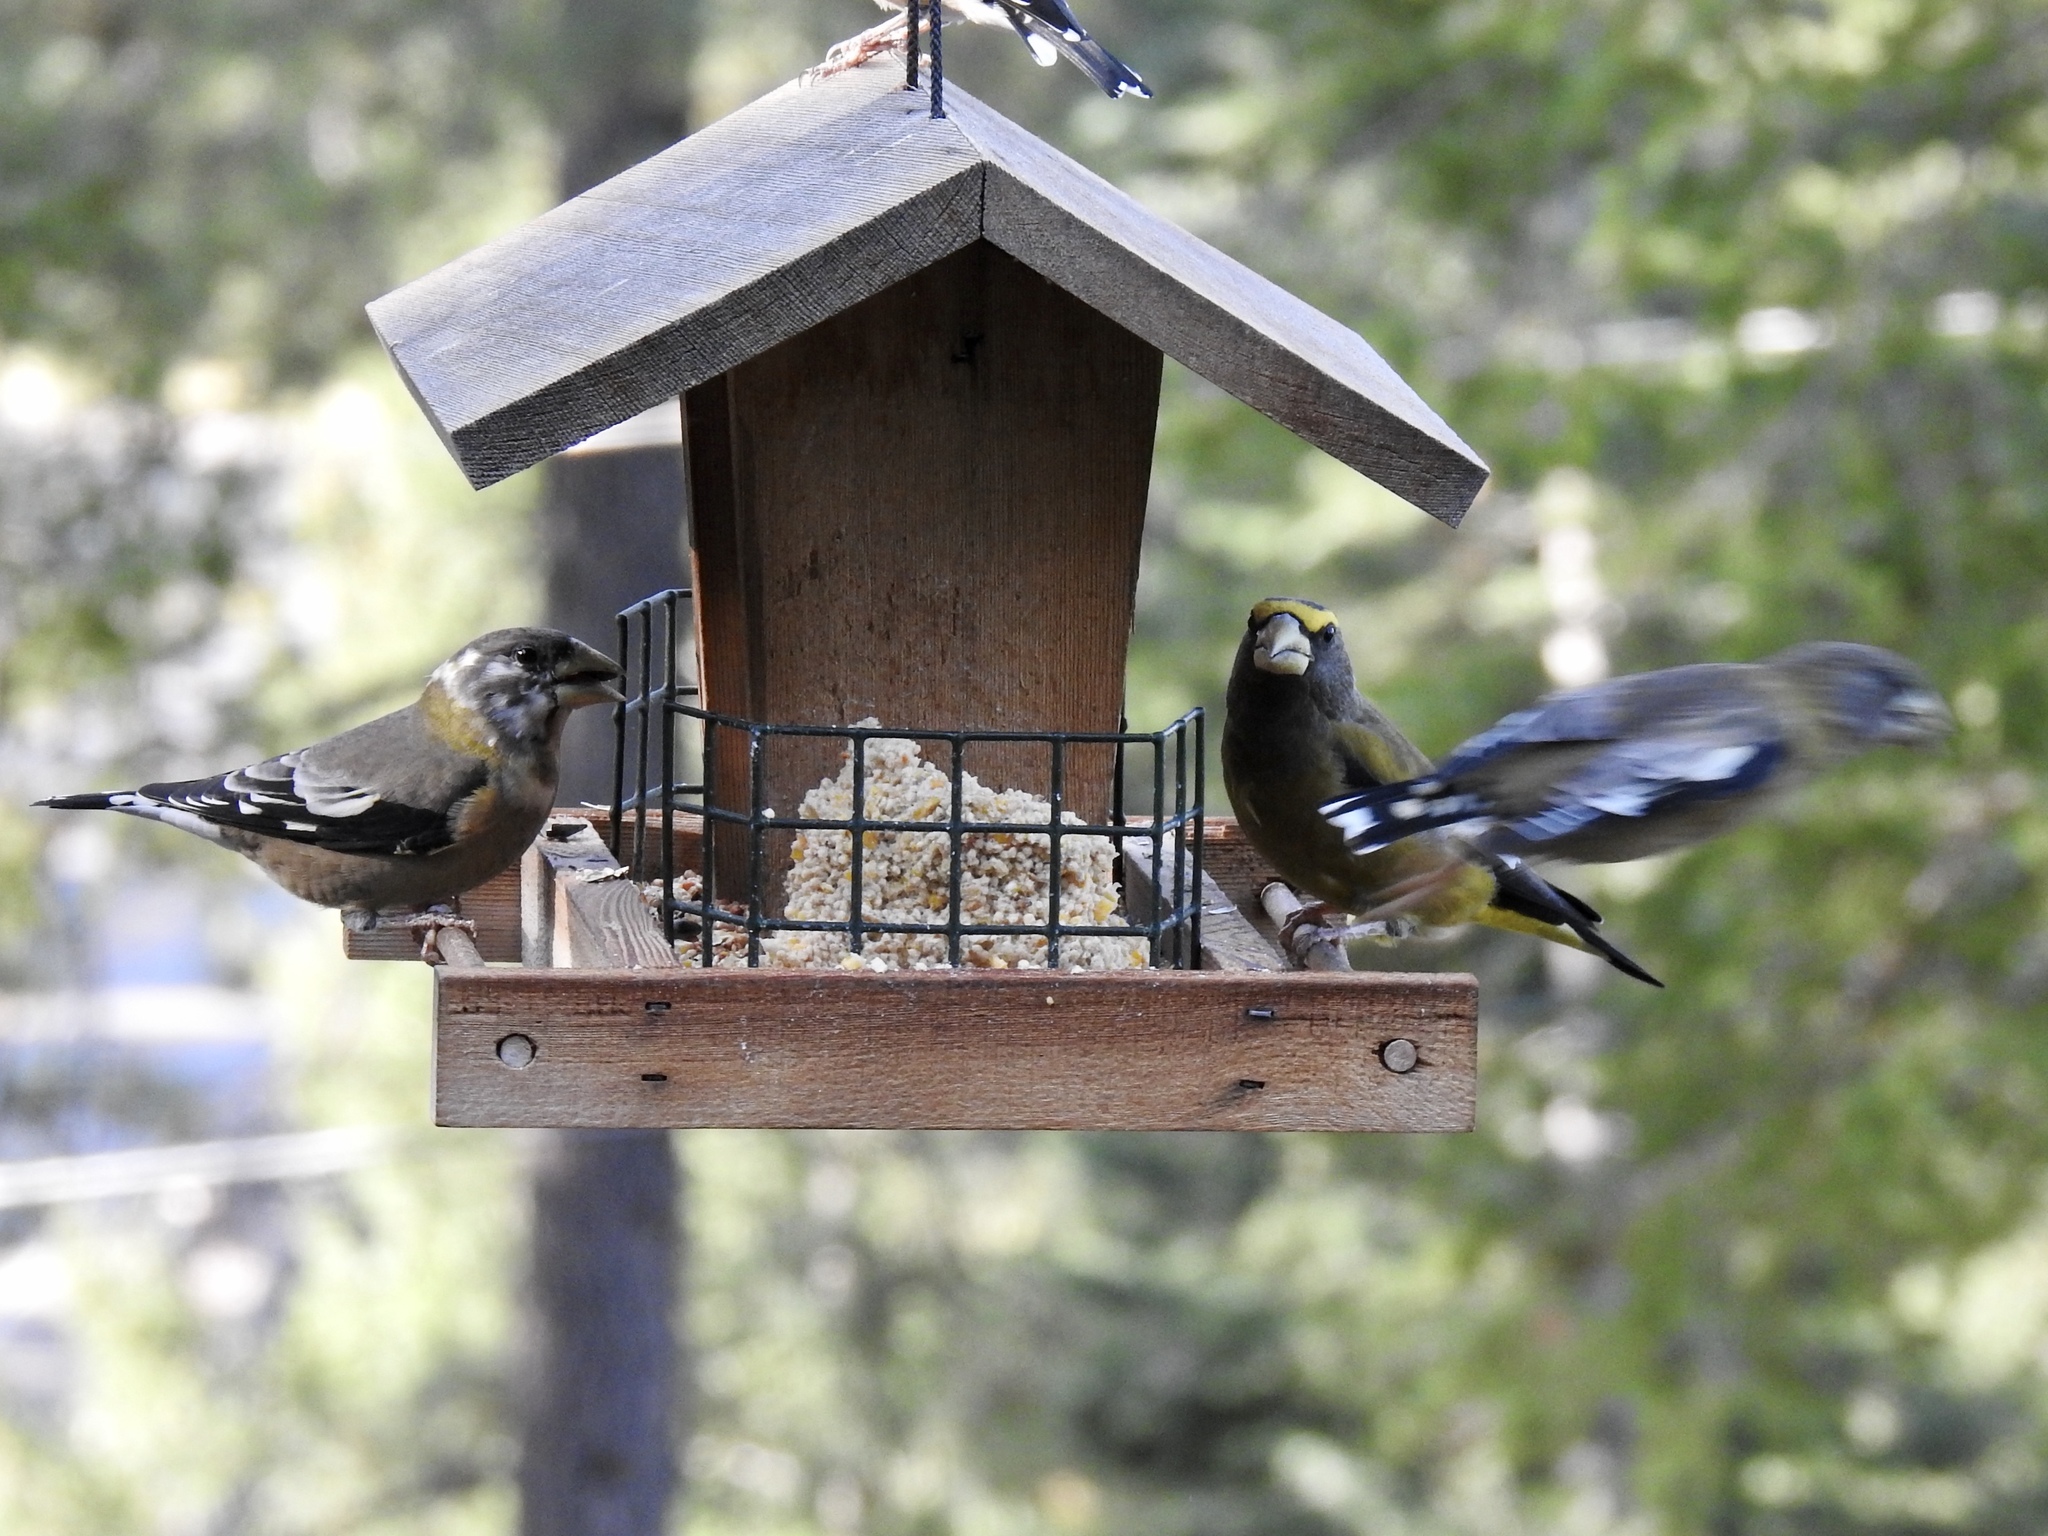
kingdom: Animalia
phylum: Chordata
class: Aves
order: Passeriformes
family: Fringillidae
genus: Hesperiphona
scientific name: Hesperiphona vespertina
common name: Evening grosbeak
